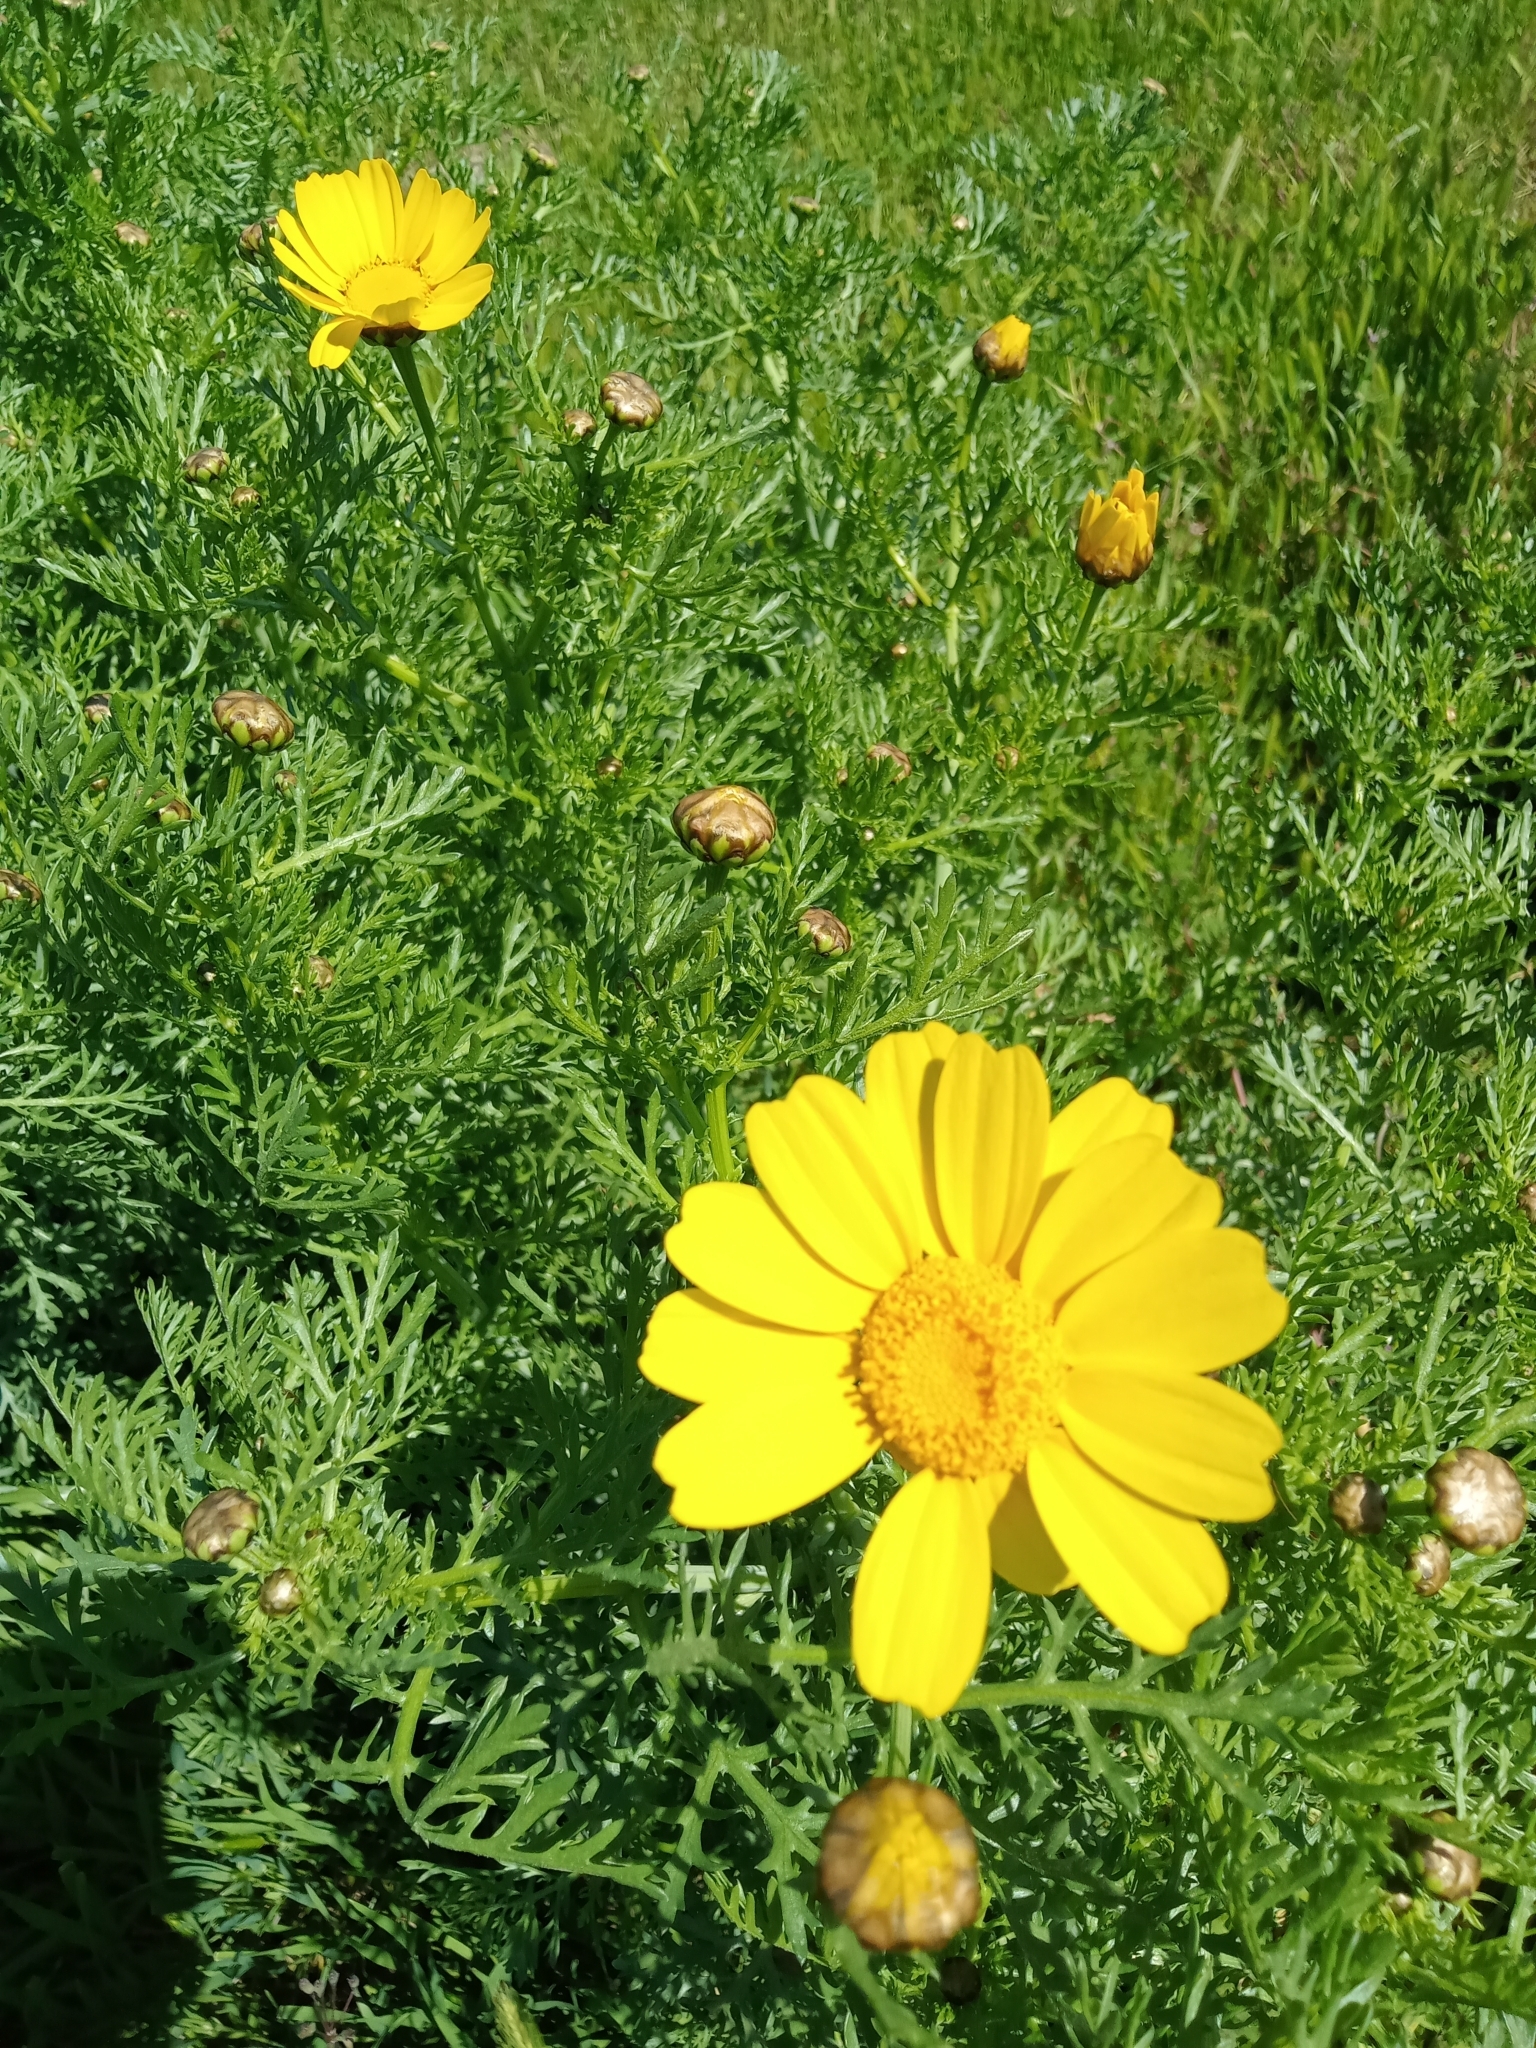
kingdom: Plantae
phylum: Tracheophyta
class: Magnoliopsida
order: Asterales
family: Asteraceae
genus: Glebionis
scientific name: Glebionis coronaria
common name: Crowndaisy
